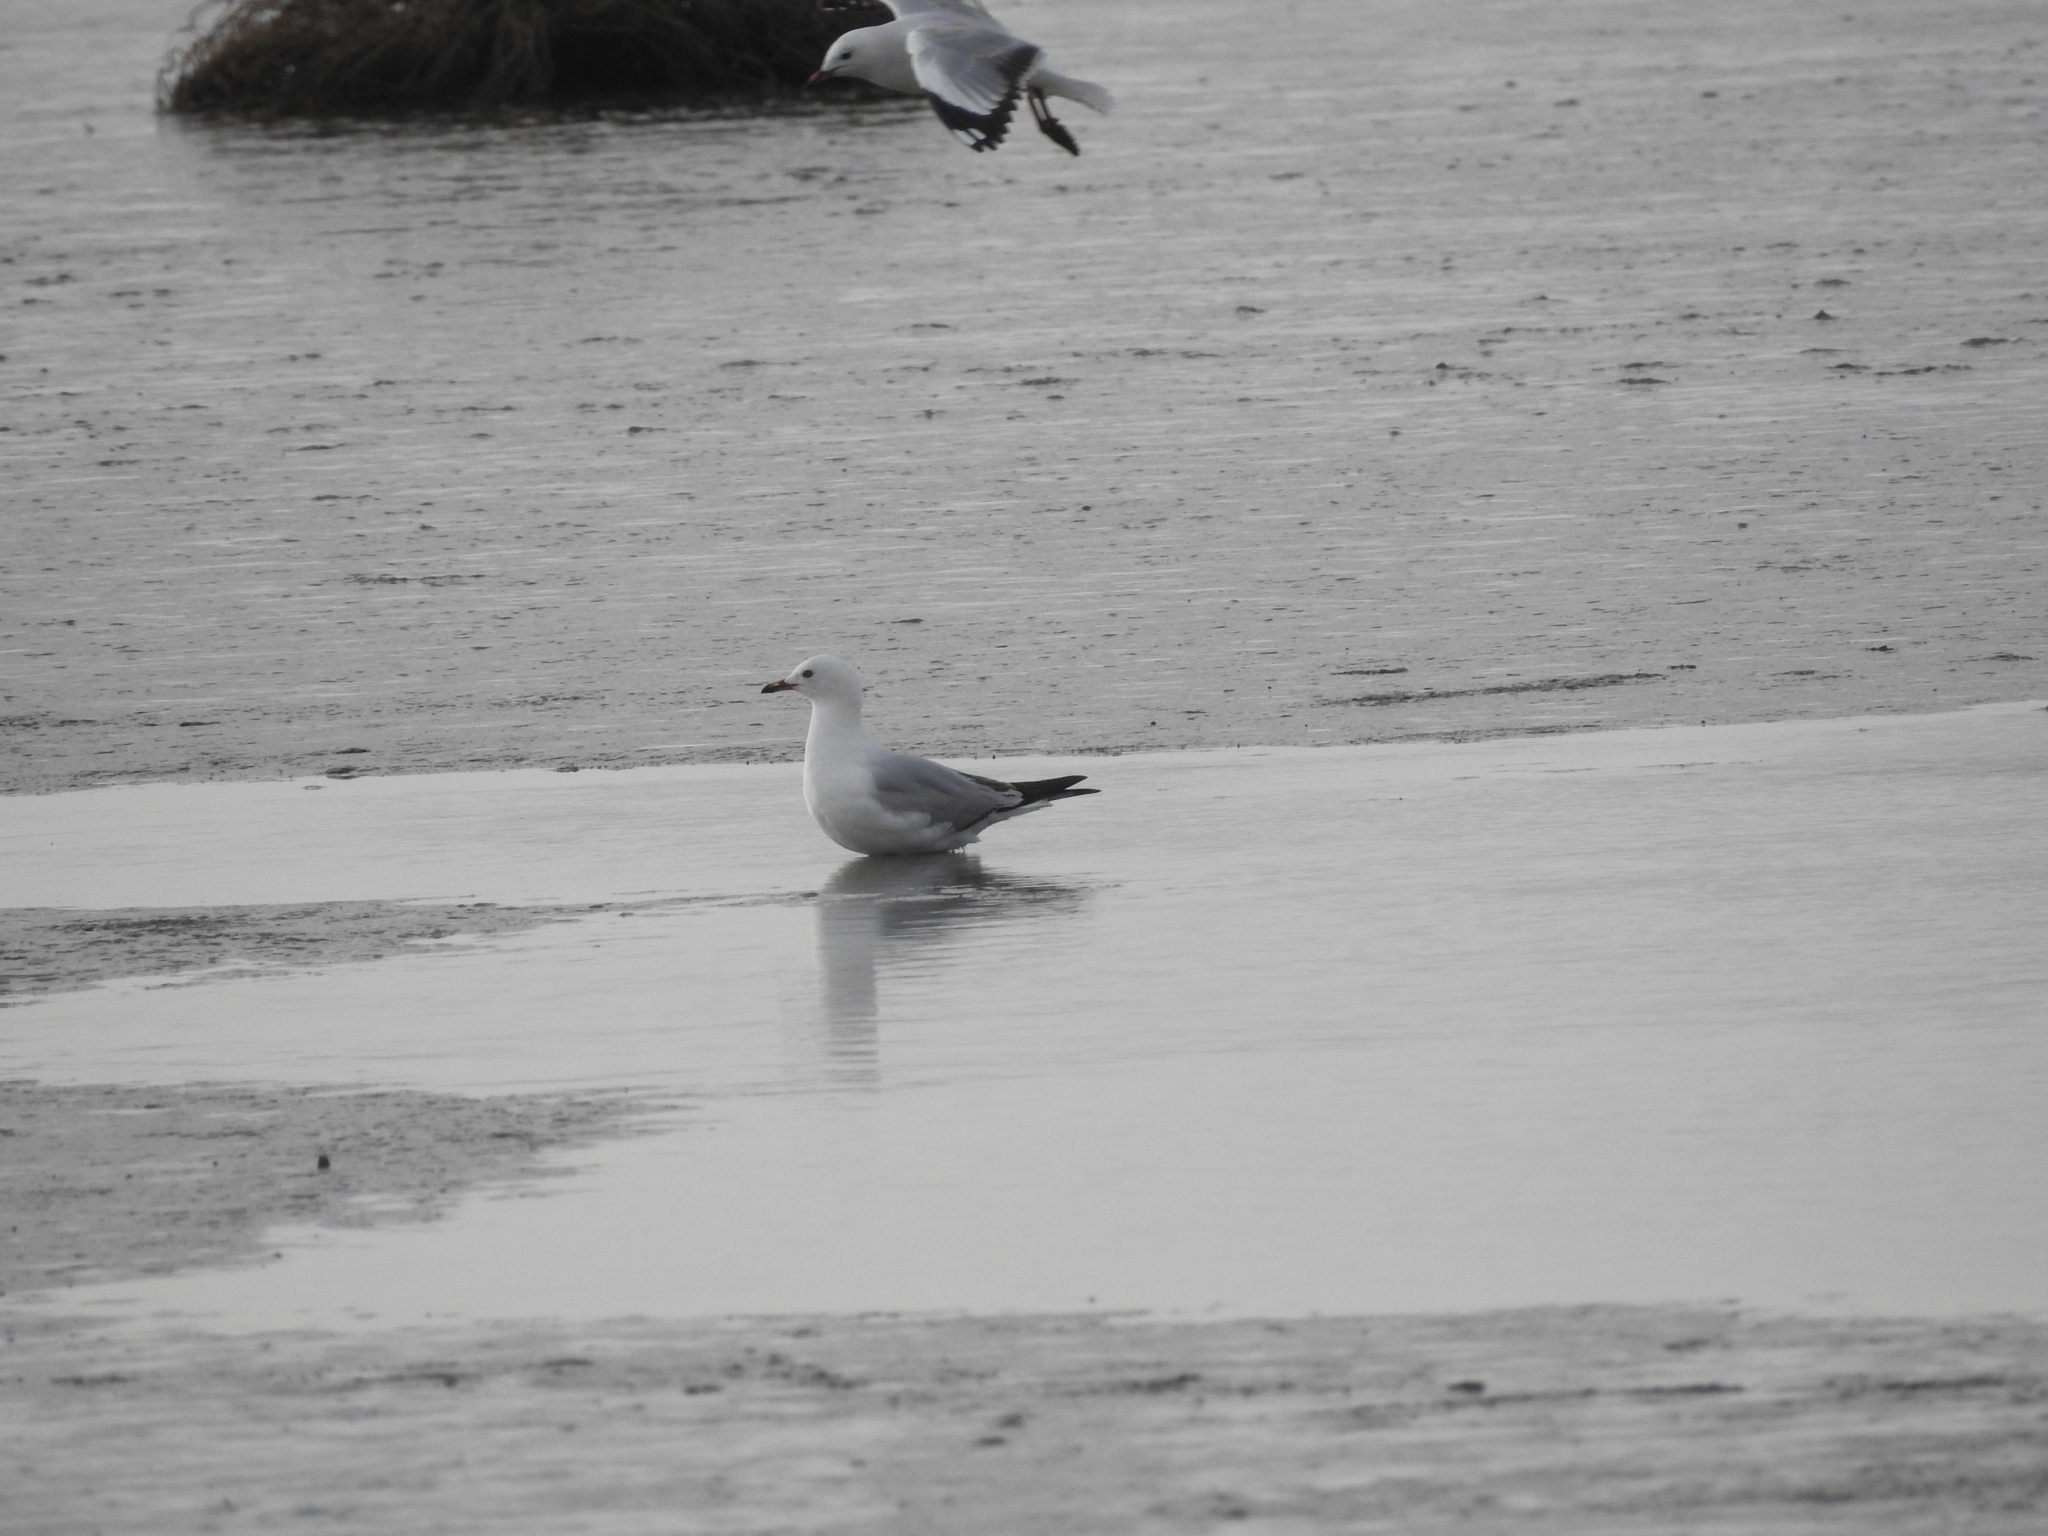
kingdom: Animalia
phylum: Chordata
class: Aves
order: Charadriiformes
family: Laridae
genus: Chroicocephalus
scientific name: Chroicocephalus novaehollandiae
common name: Silver gull
